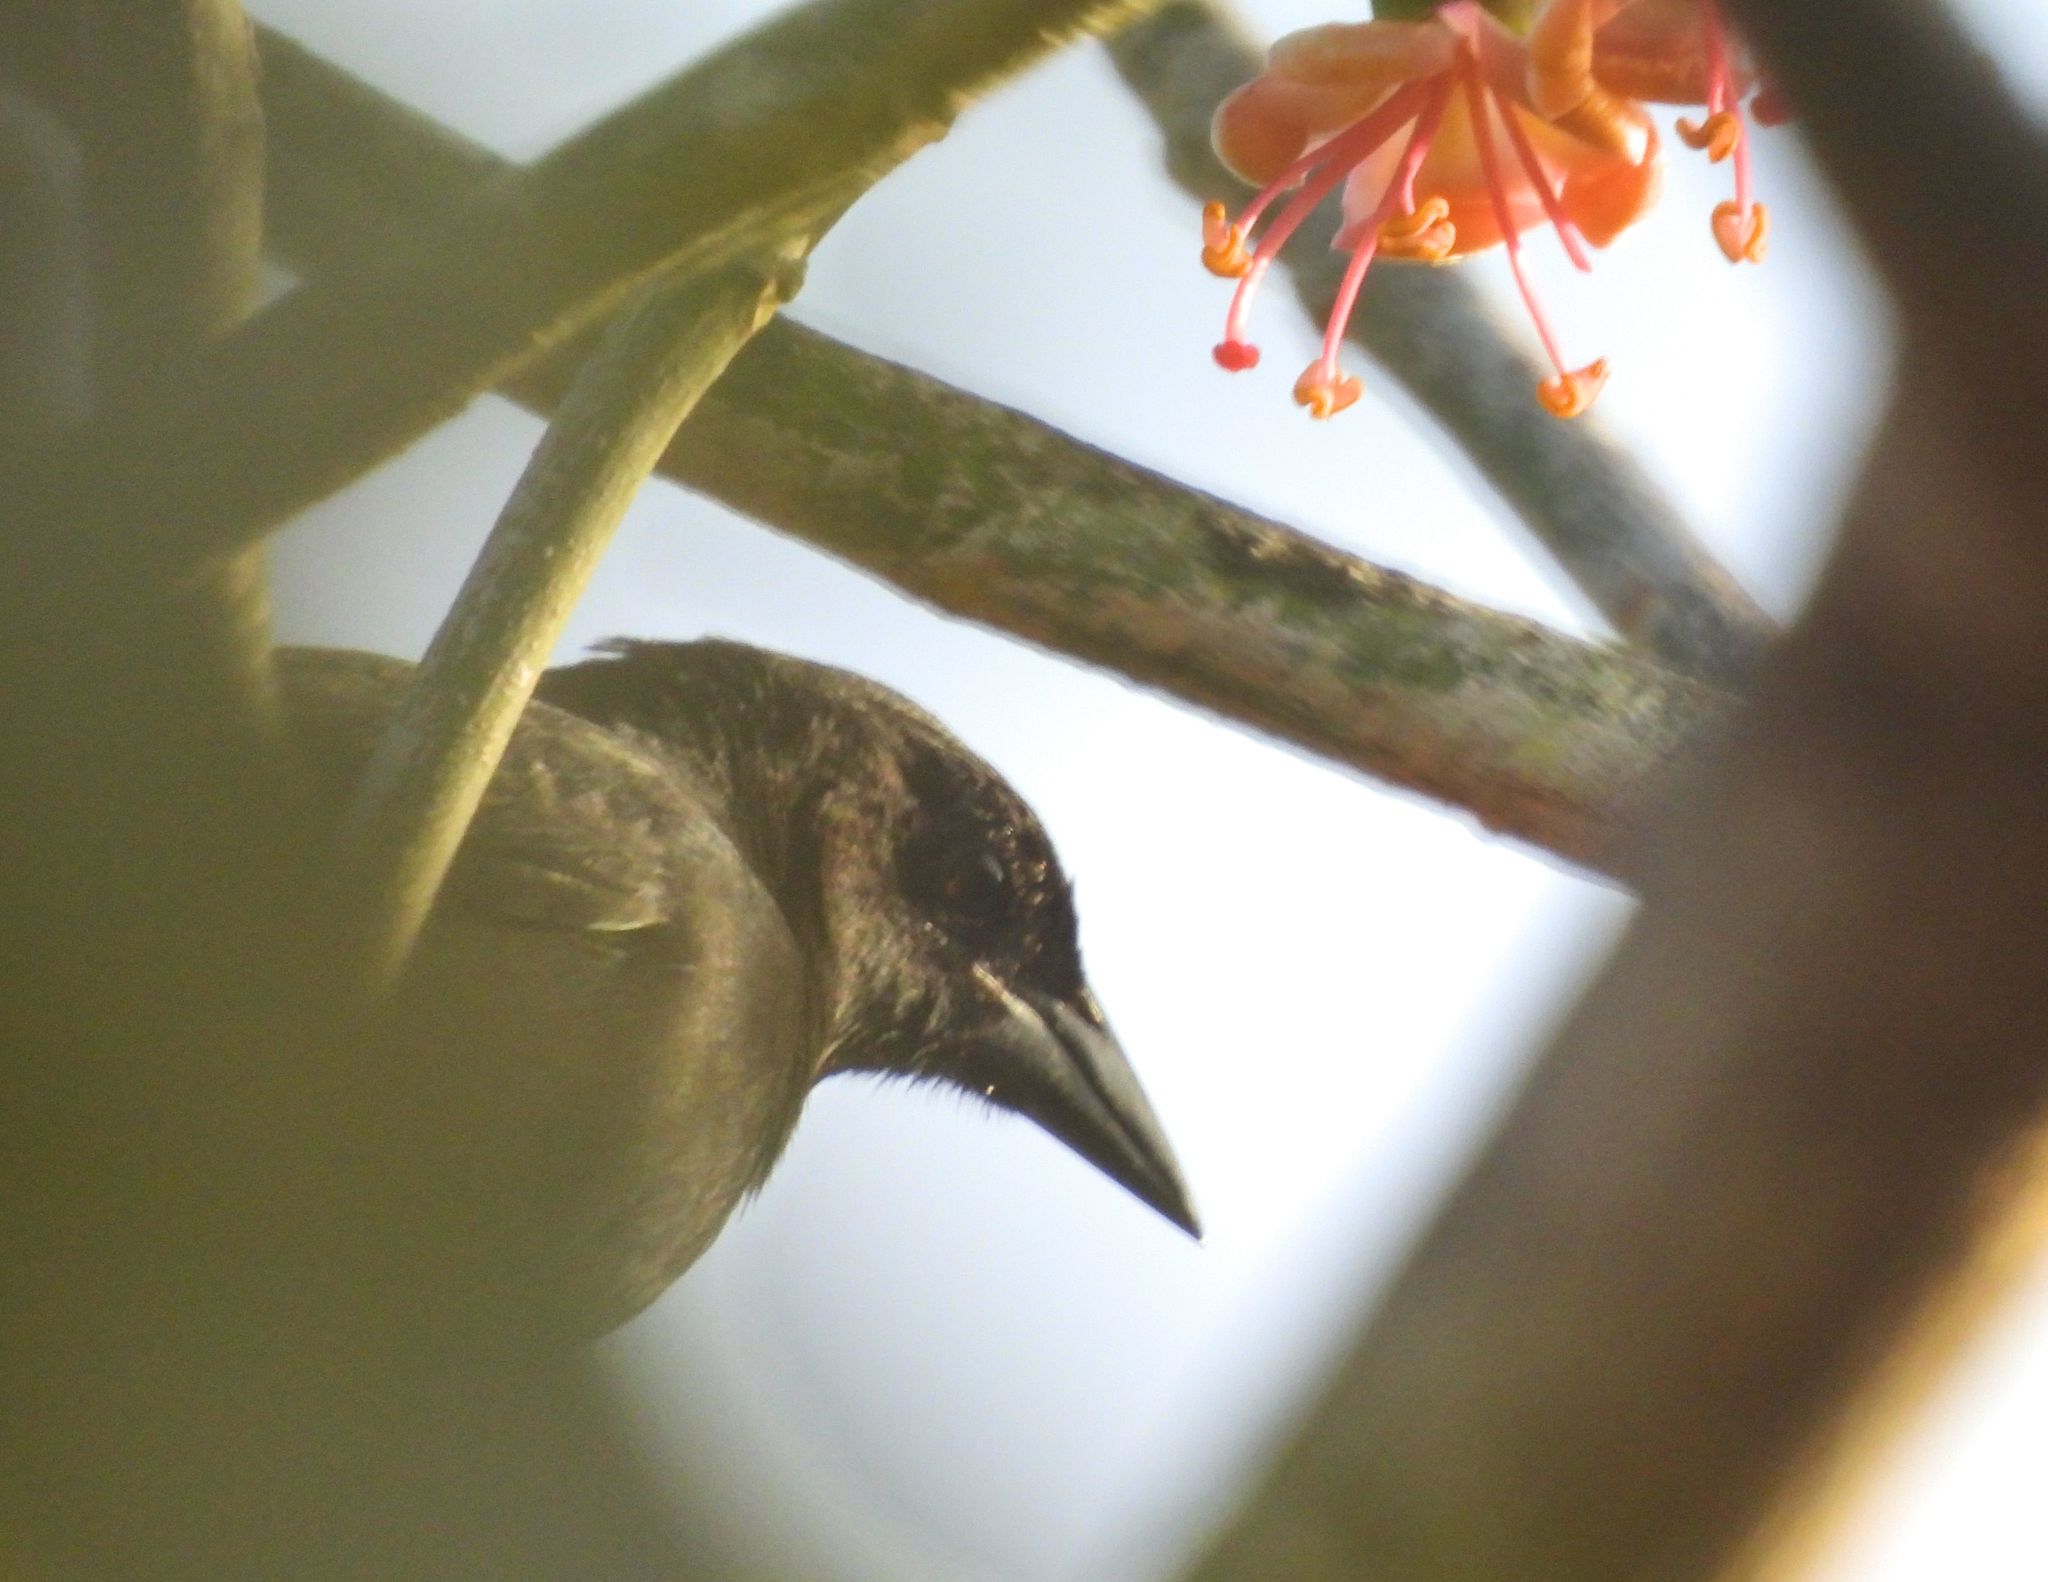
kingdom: Animalia
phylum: Chordata
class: Aves
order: Passeriformes
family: Icteridae
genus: Dives
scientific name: Dives dives
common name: Melodious blackbird
